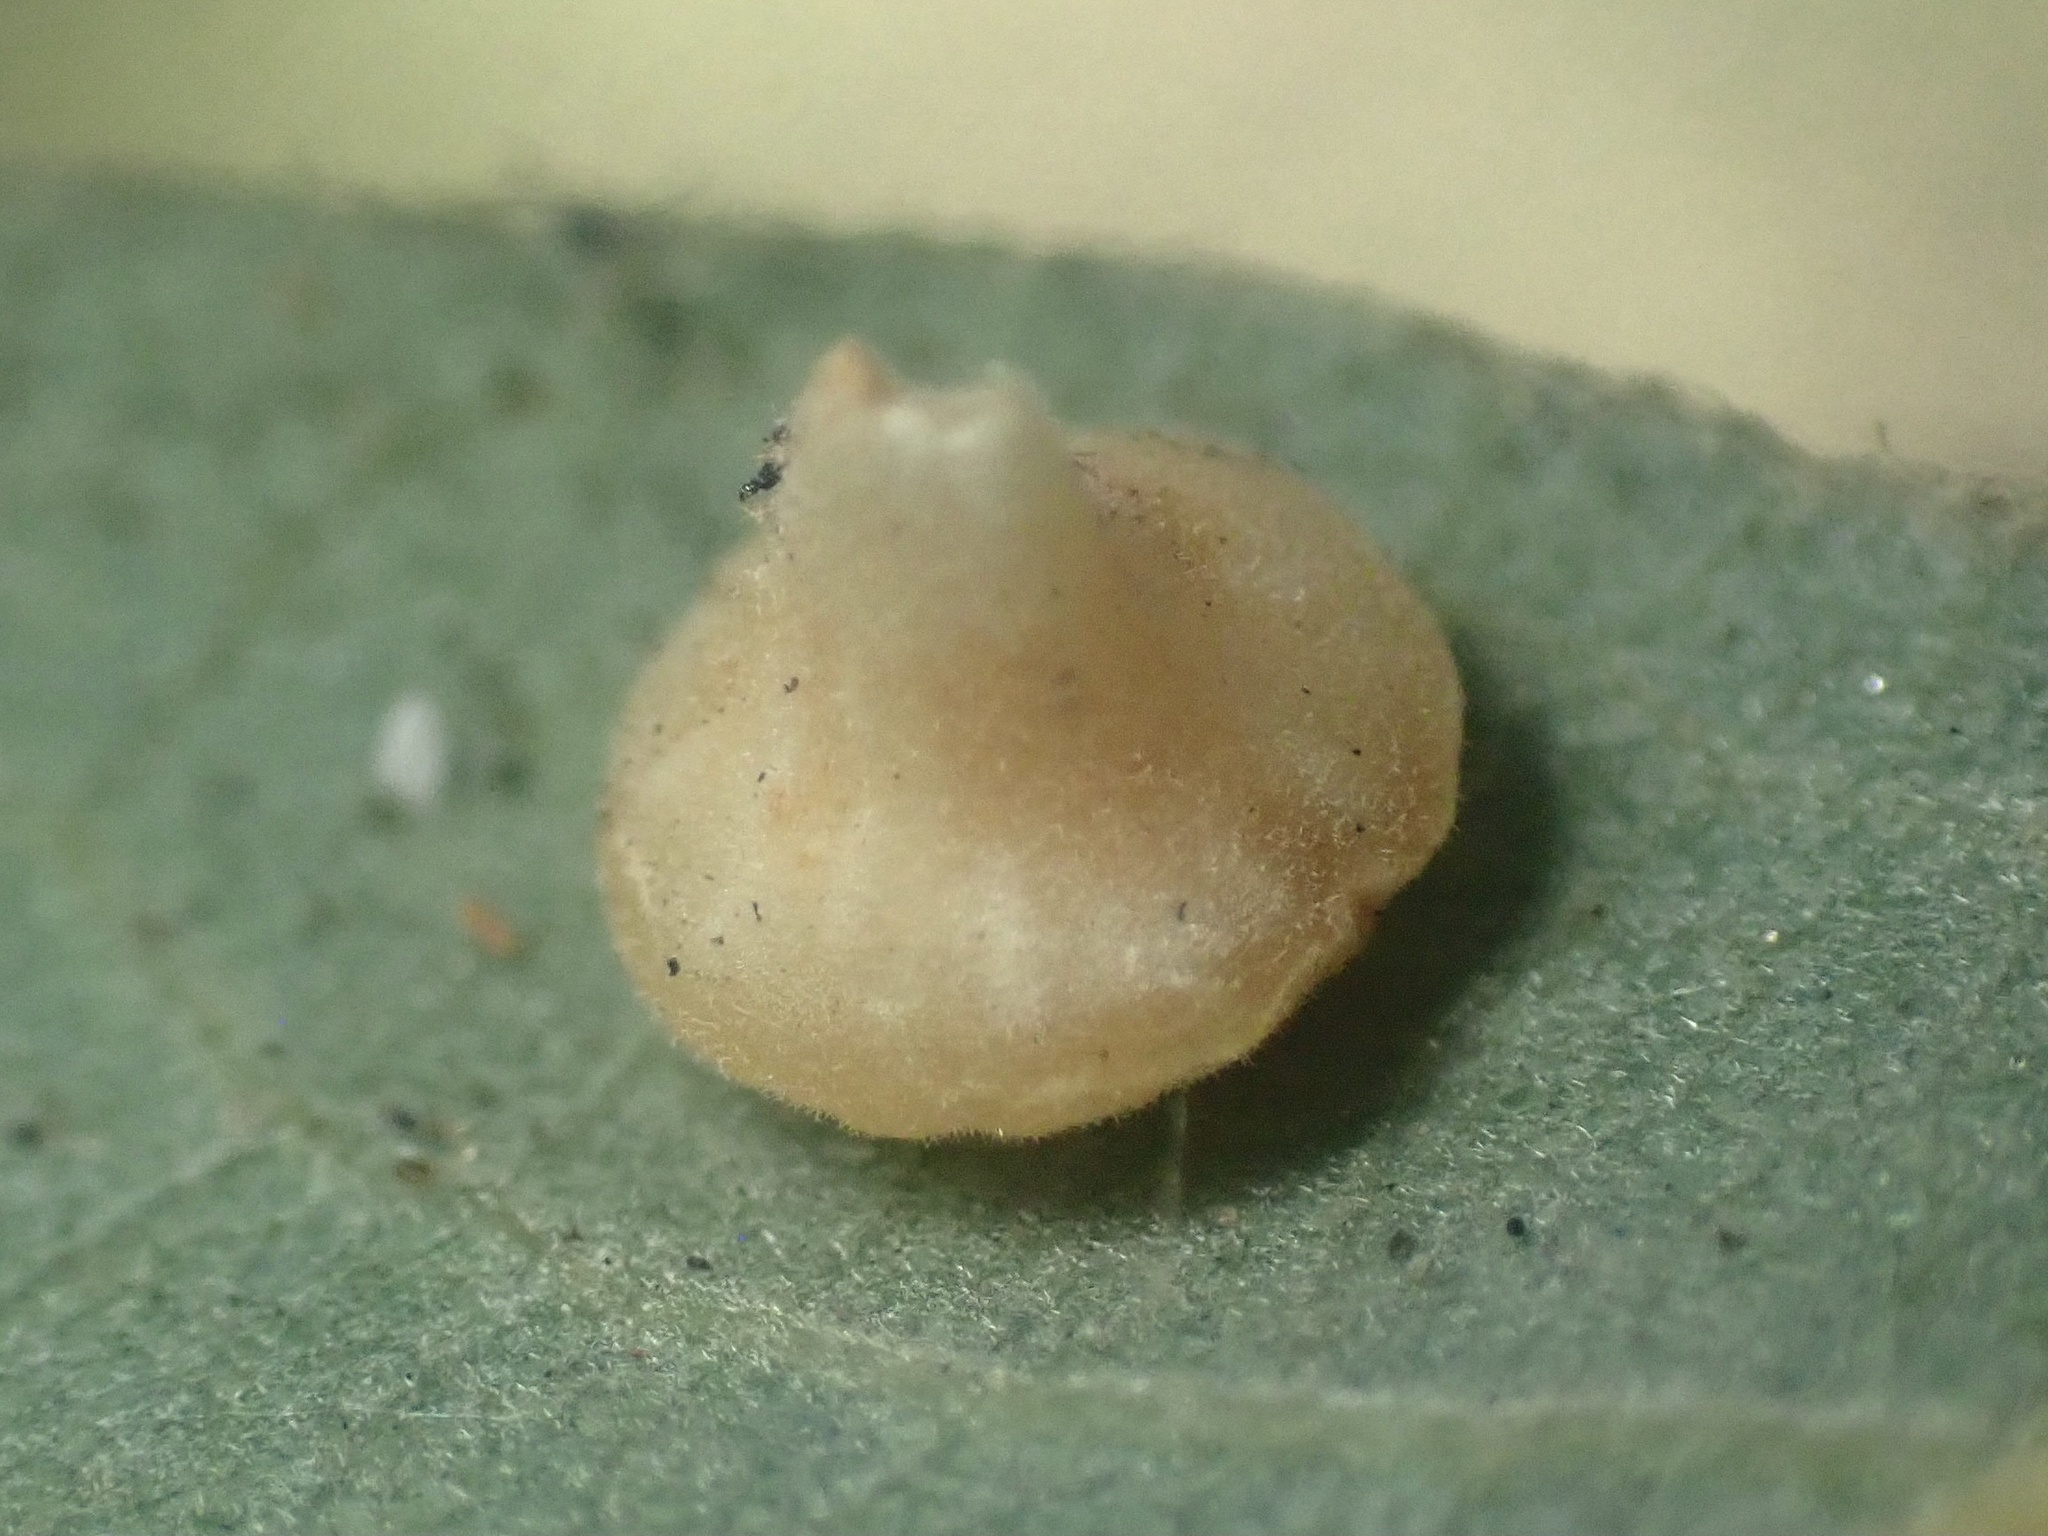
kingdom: Animalia
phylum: Arthropoda
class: Insecta
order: Hymenoptera
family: Cynipidae
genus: Andricus
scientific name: Andricus
